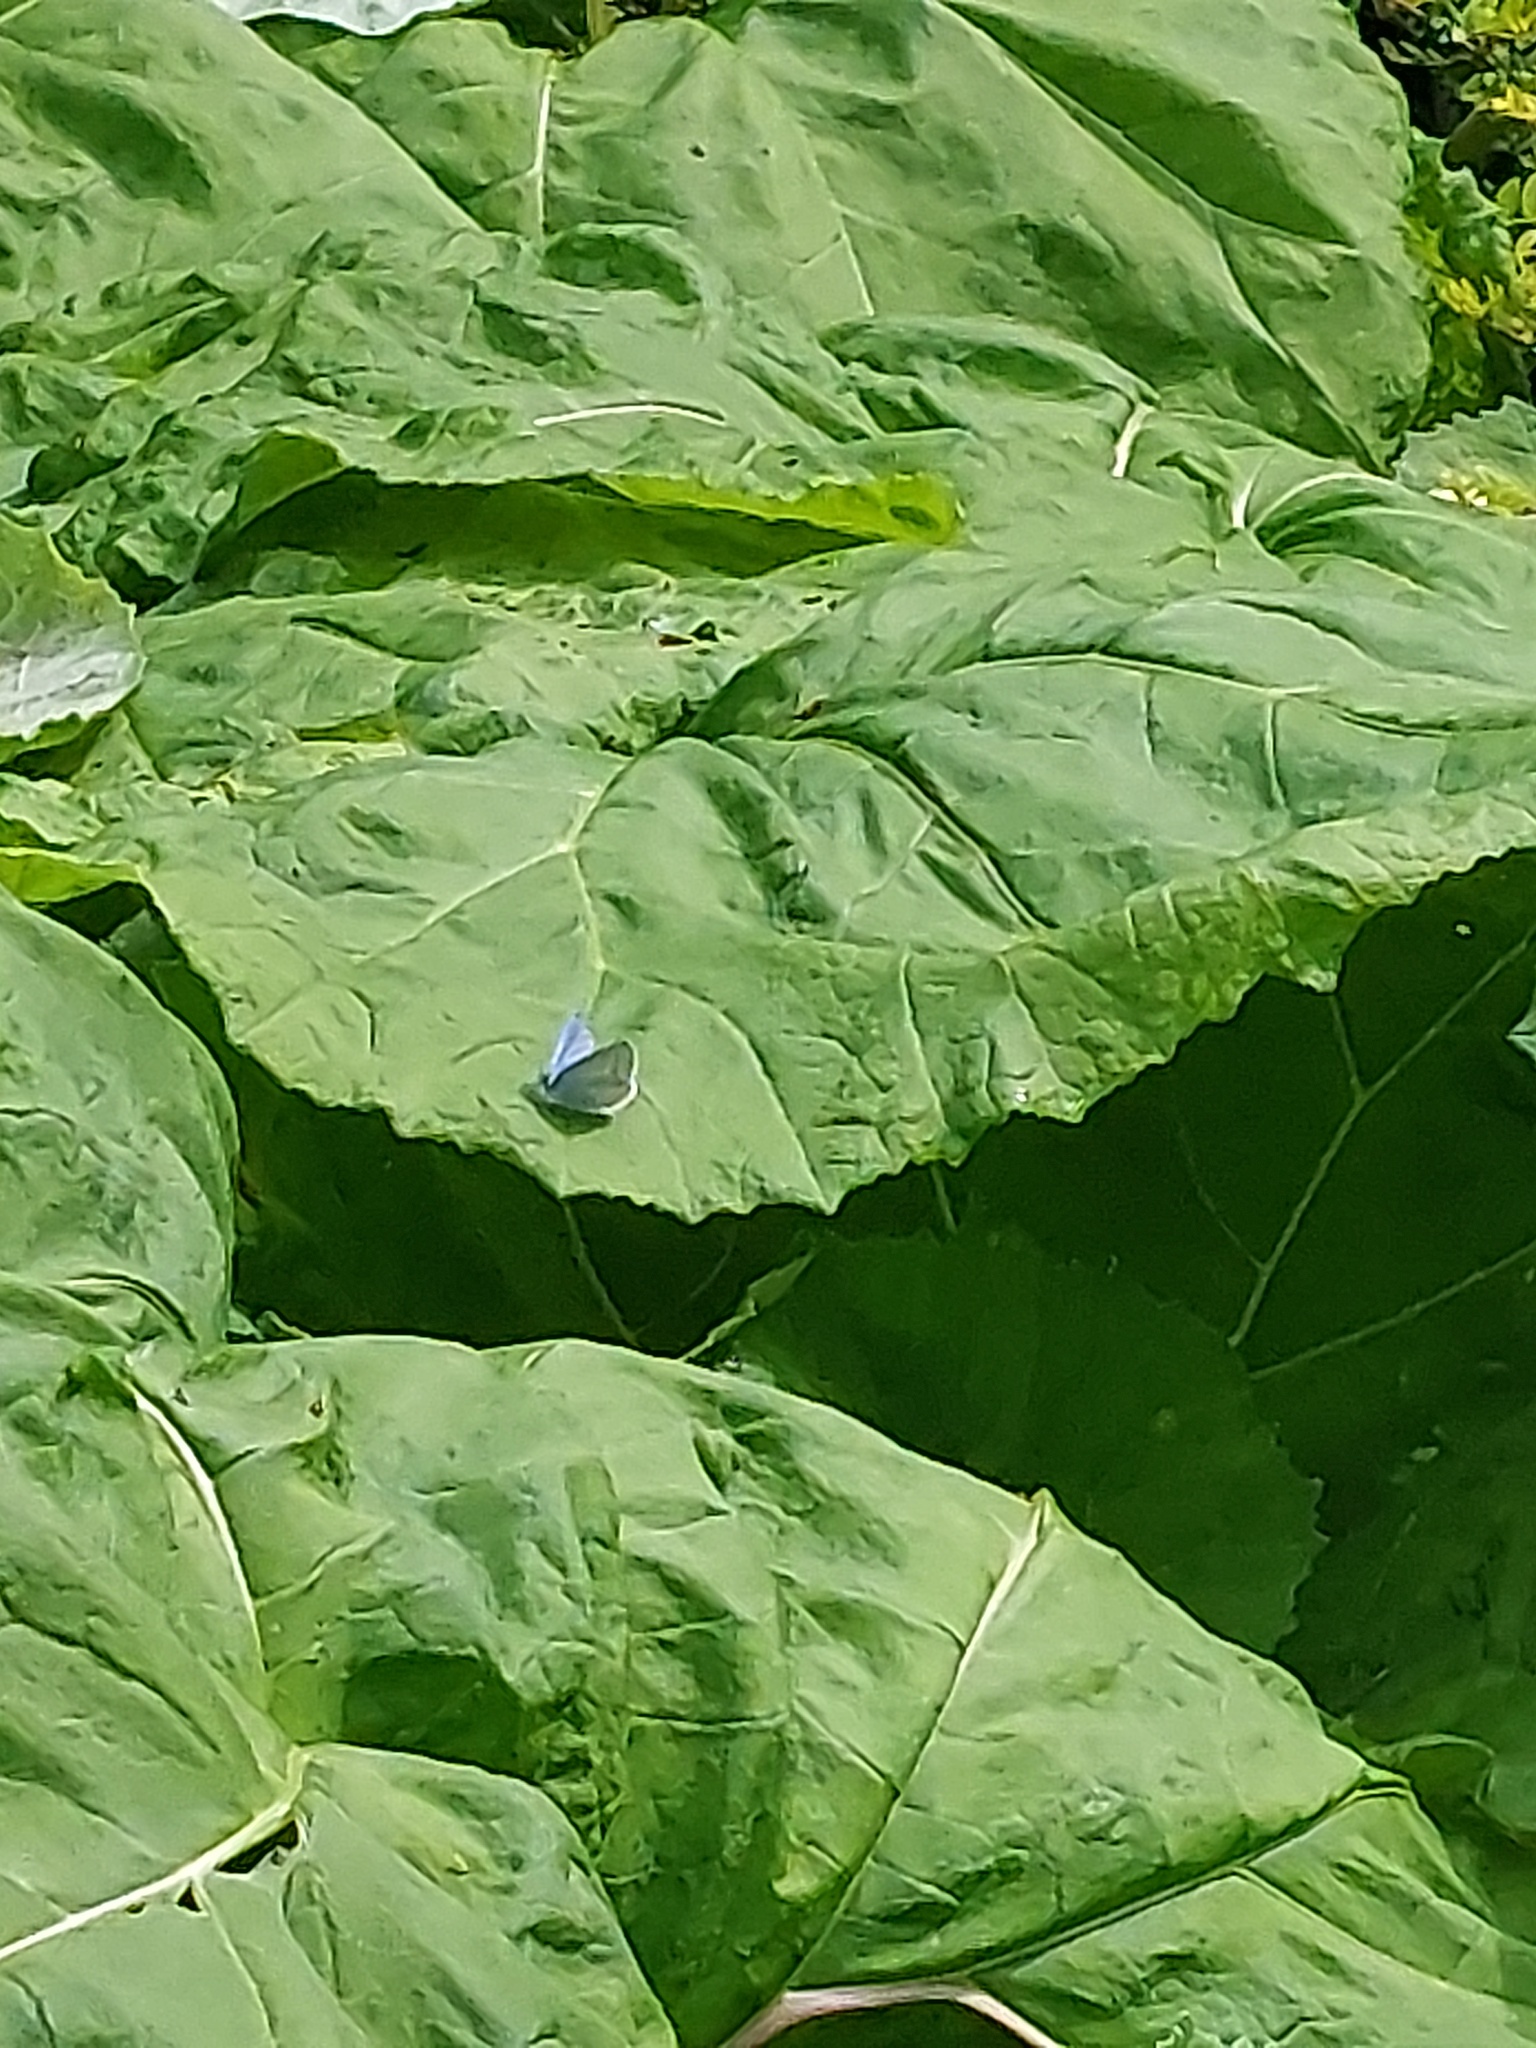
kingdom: Animalia
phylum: Arthropoda
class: Insecta
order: Lepidoptera
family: Lycaenidae
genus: Celastrina
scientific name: Celastrina argiolus
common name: Holly blue
